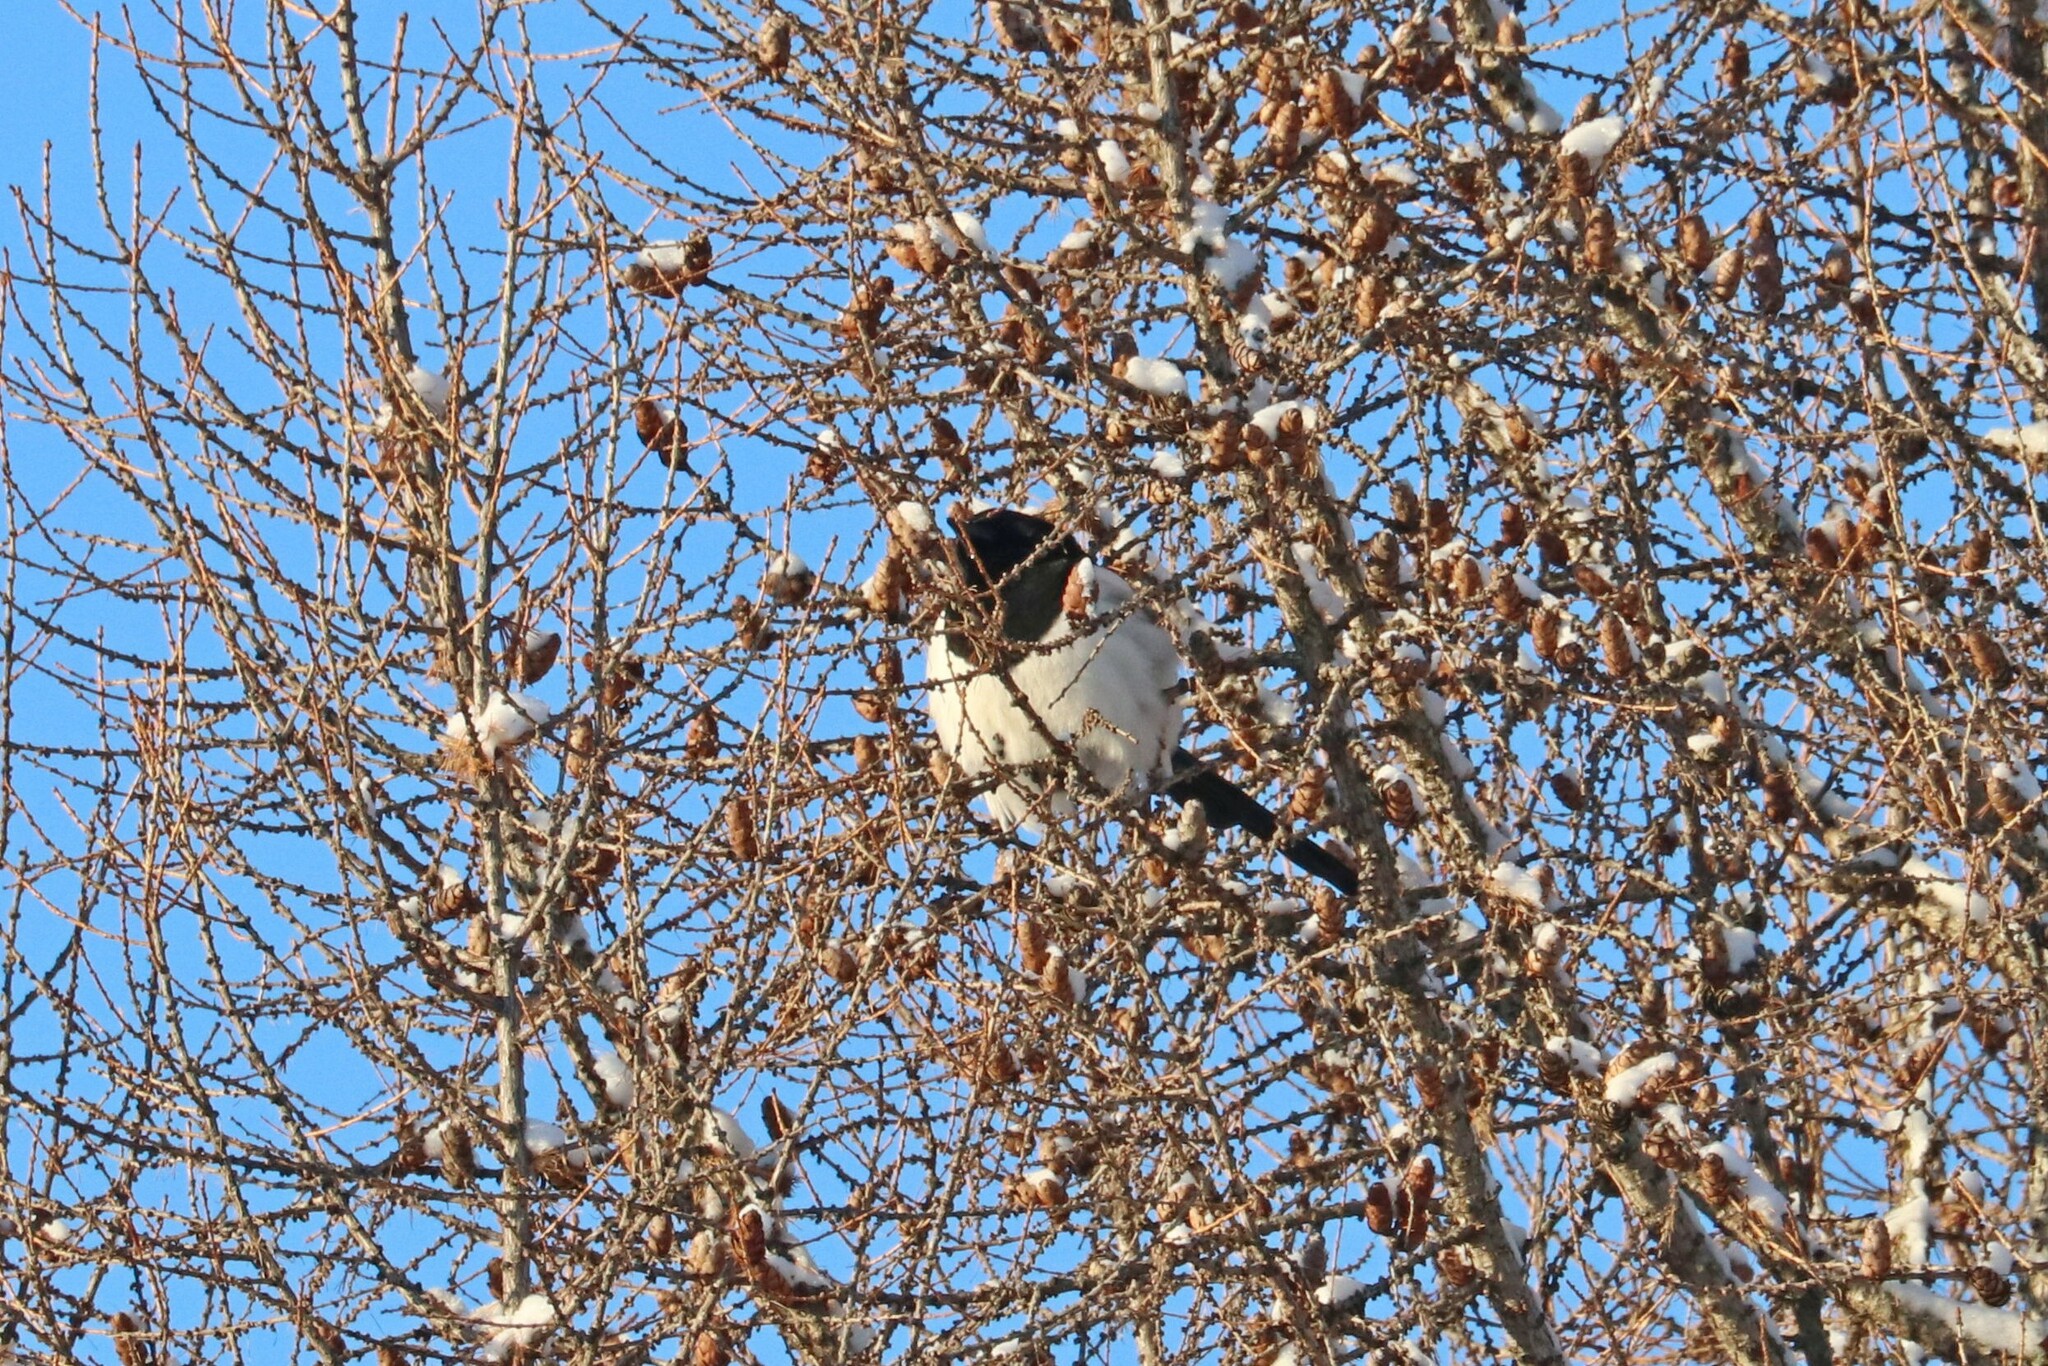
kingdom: Animalia
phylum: Chordata
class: Aves
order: Passeriformes
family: Corvidae
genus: Pica
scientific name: Pica pica
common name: Eurasian magpie
